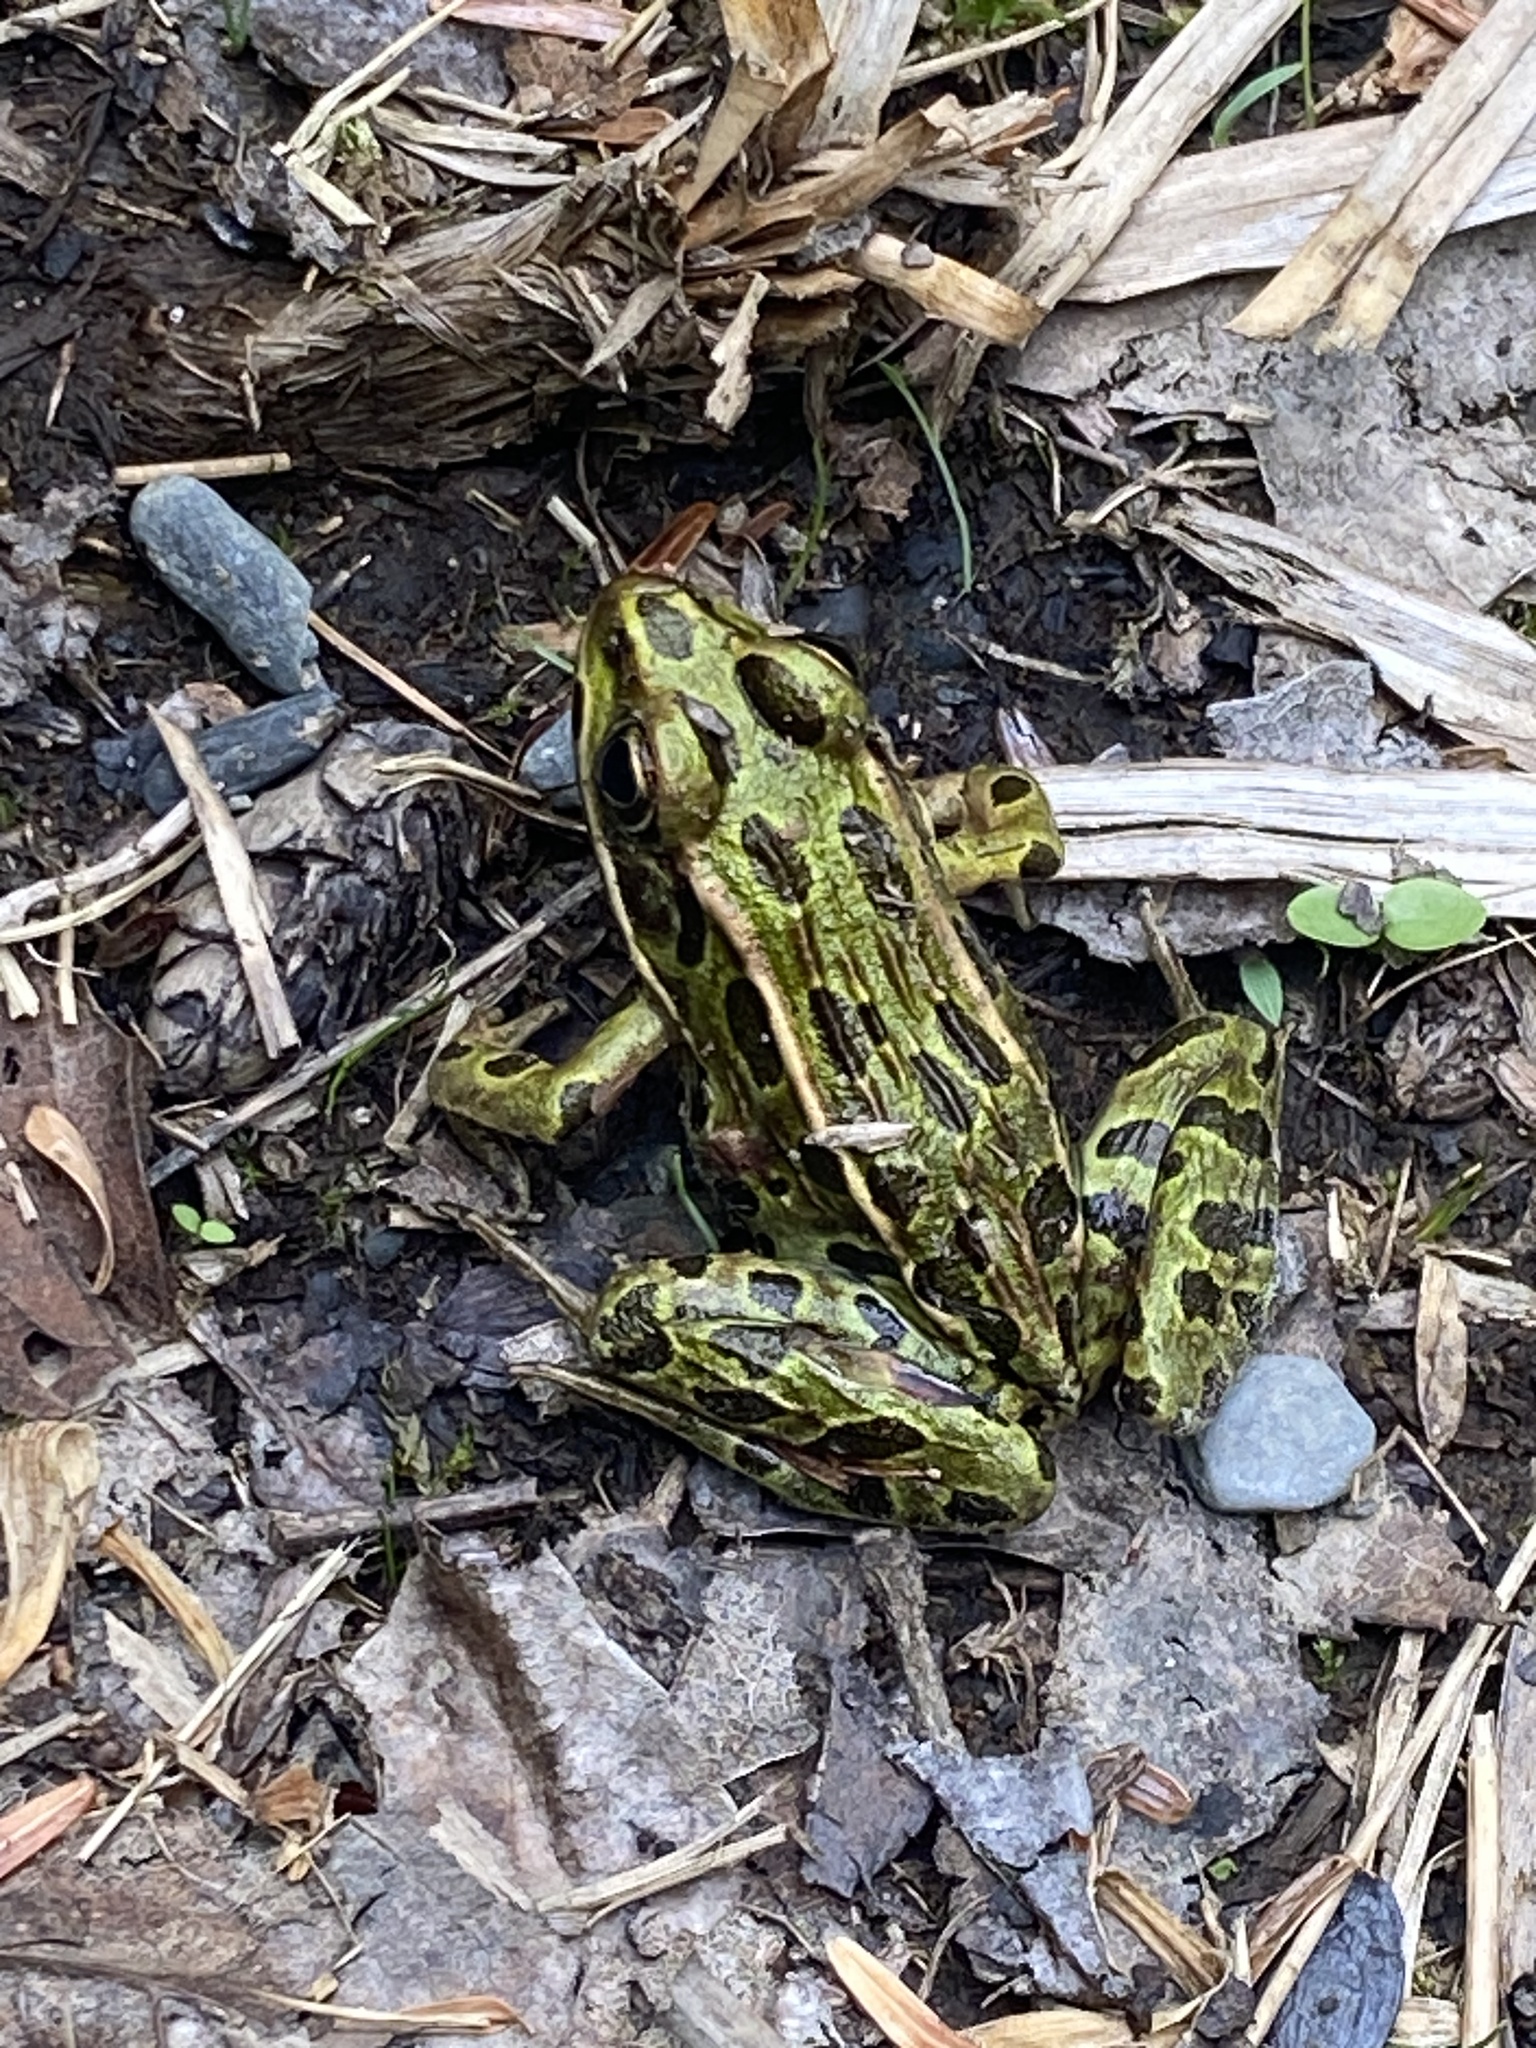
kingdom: Animalia
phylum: Chordata
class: Amphibia
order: Anura
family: Ranidae
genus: Lithobates
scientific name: Lithobates pipiens
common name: Northern leopard frog
